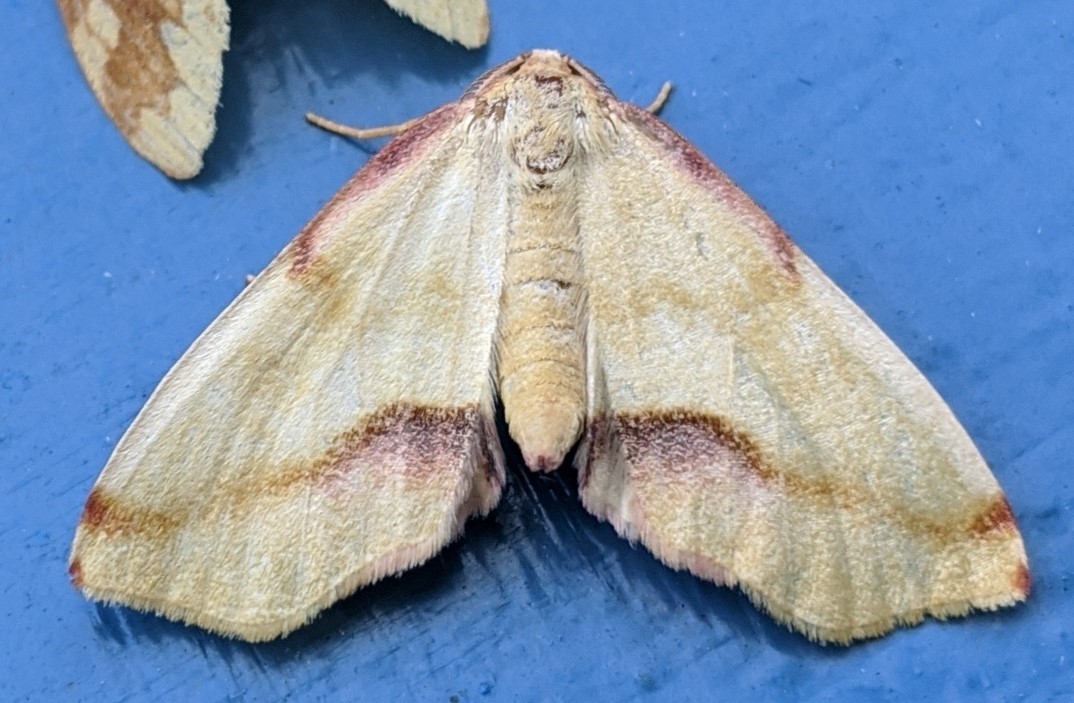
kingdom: Animalia
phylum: Arthropoda
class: Insecta
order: Lepidoptera
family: Geometridae
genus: Plagodis
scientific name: Plagodis serinaria
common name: Lemon plagodis
